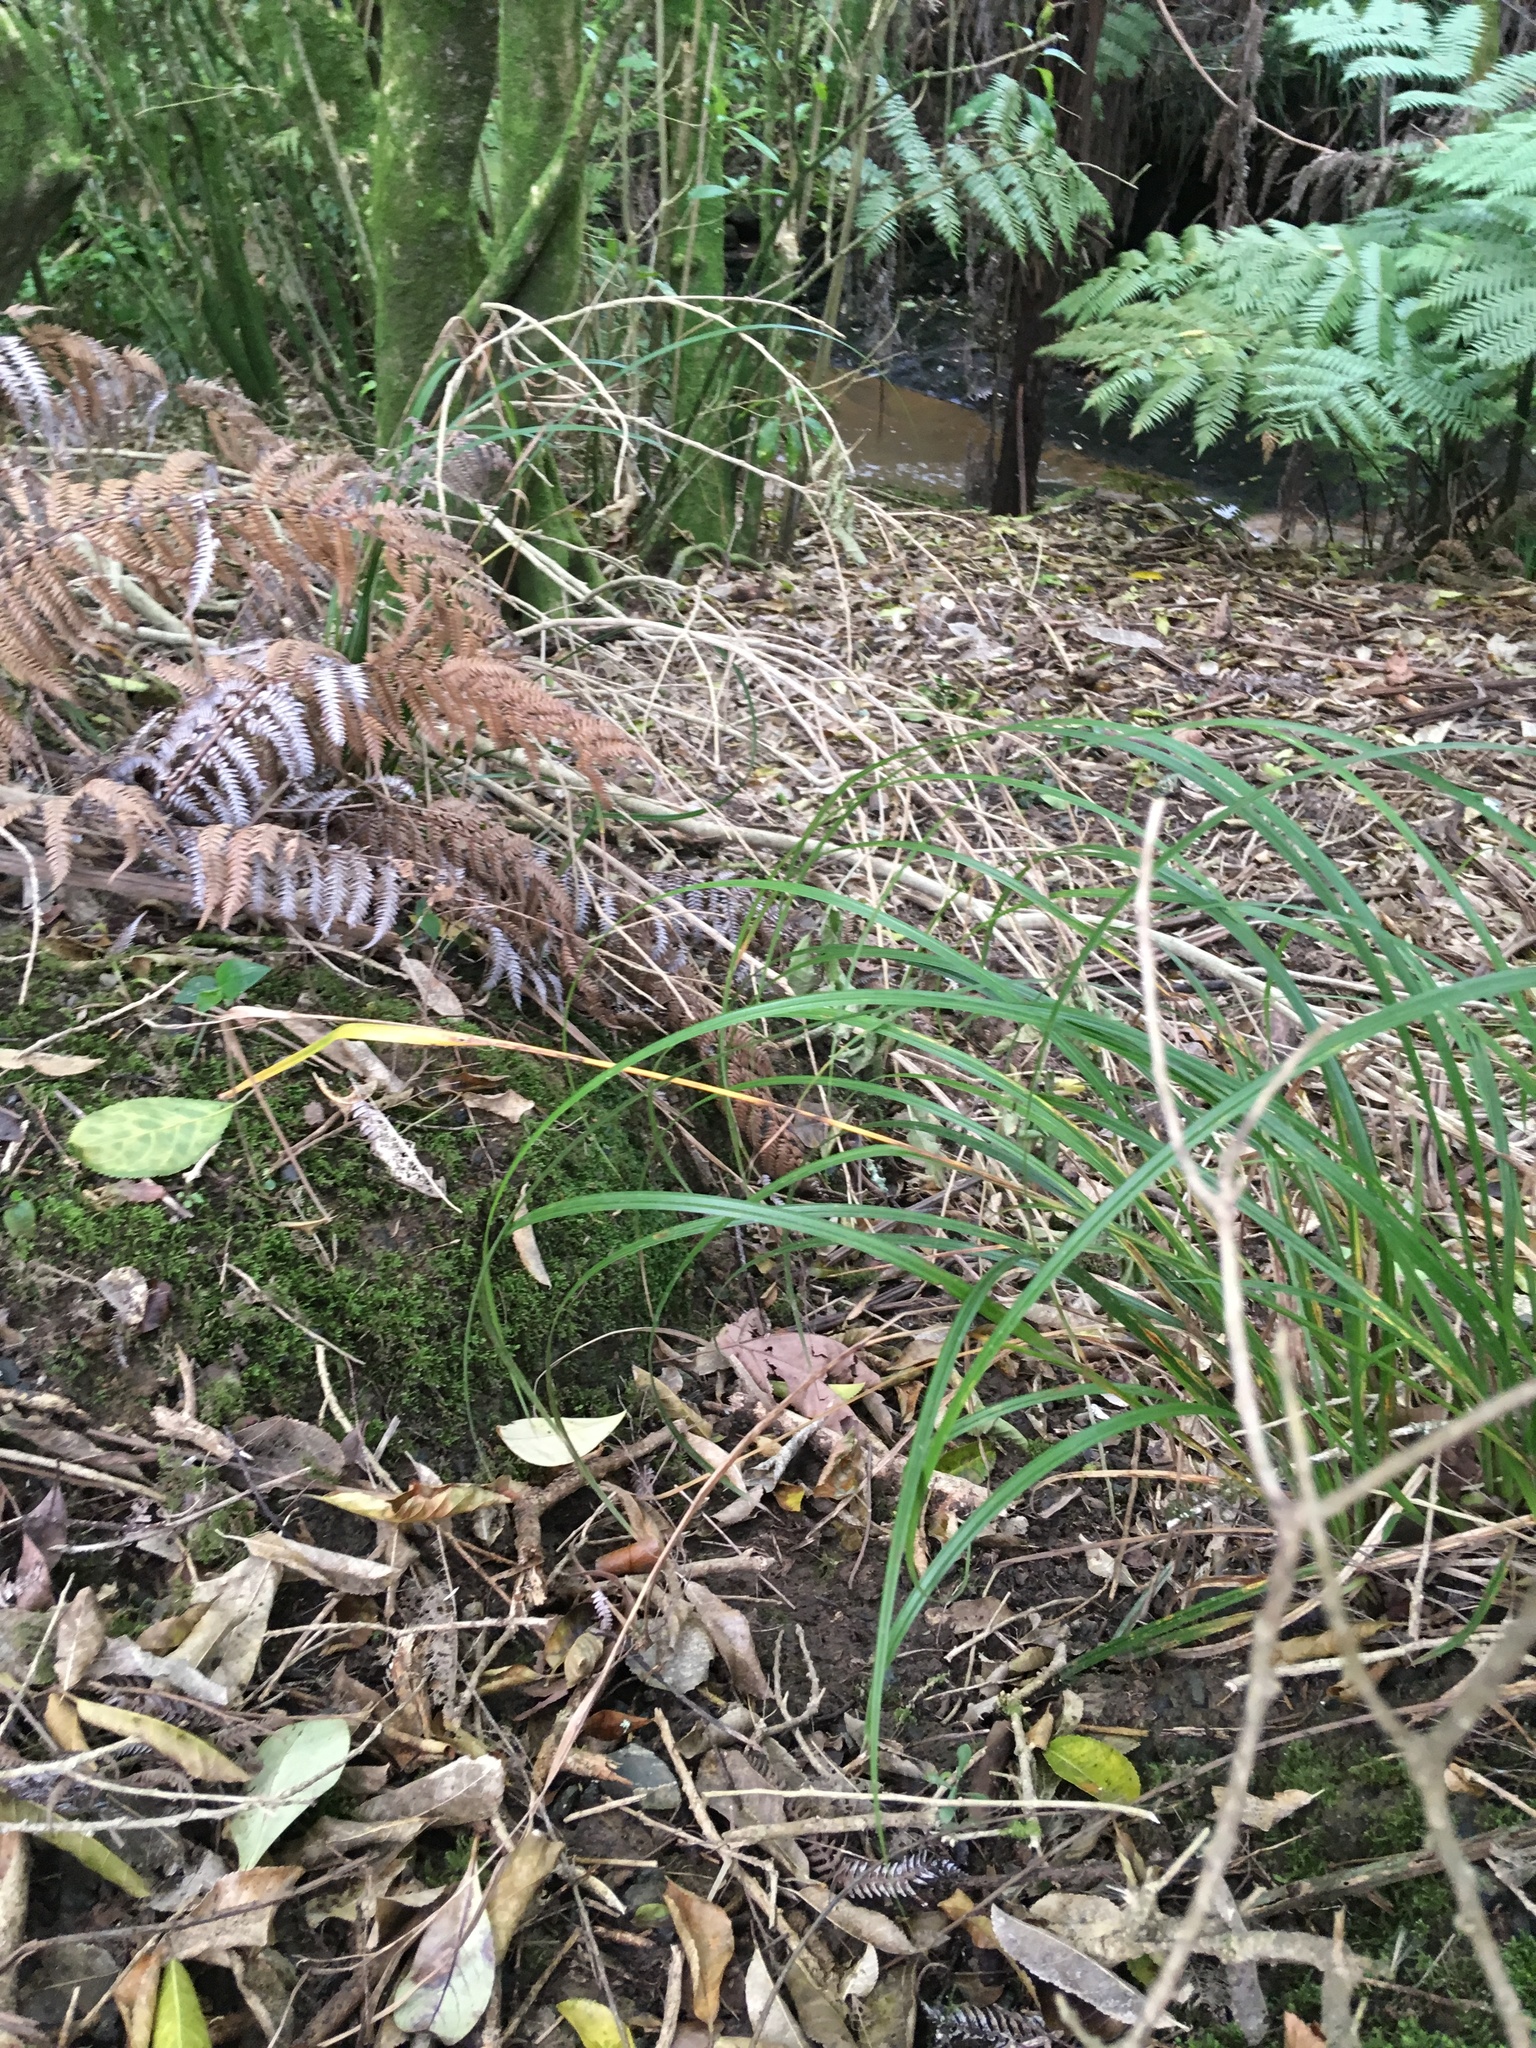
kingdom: Plantae
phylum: Tracheophyta
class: Magnoliopsida
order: Malpighiales
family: Violaceae
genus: Melicytus
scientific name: Melicytus ramiflorus
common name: Mahoe
